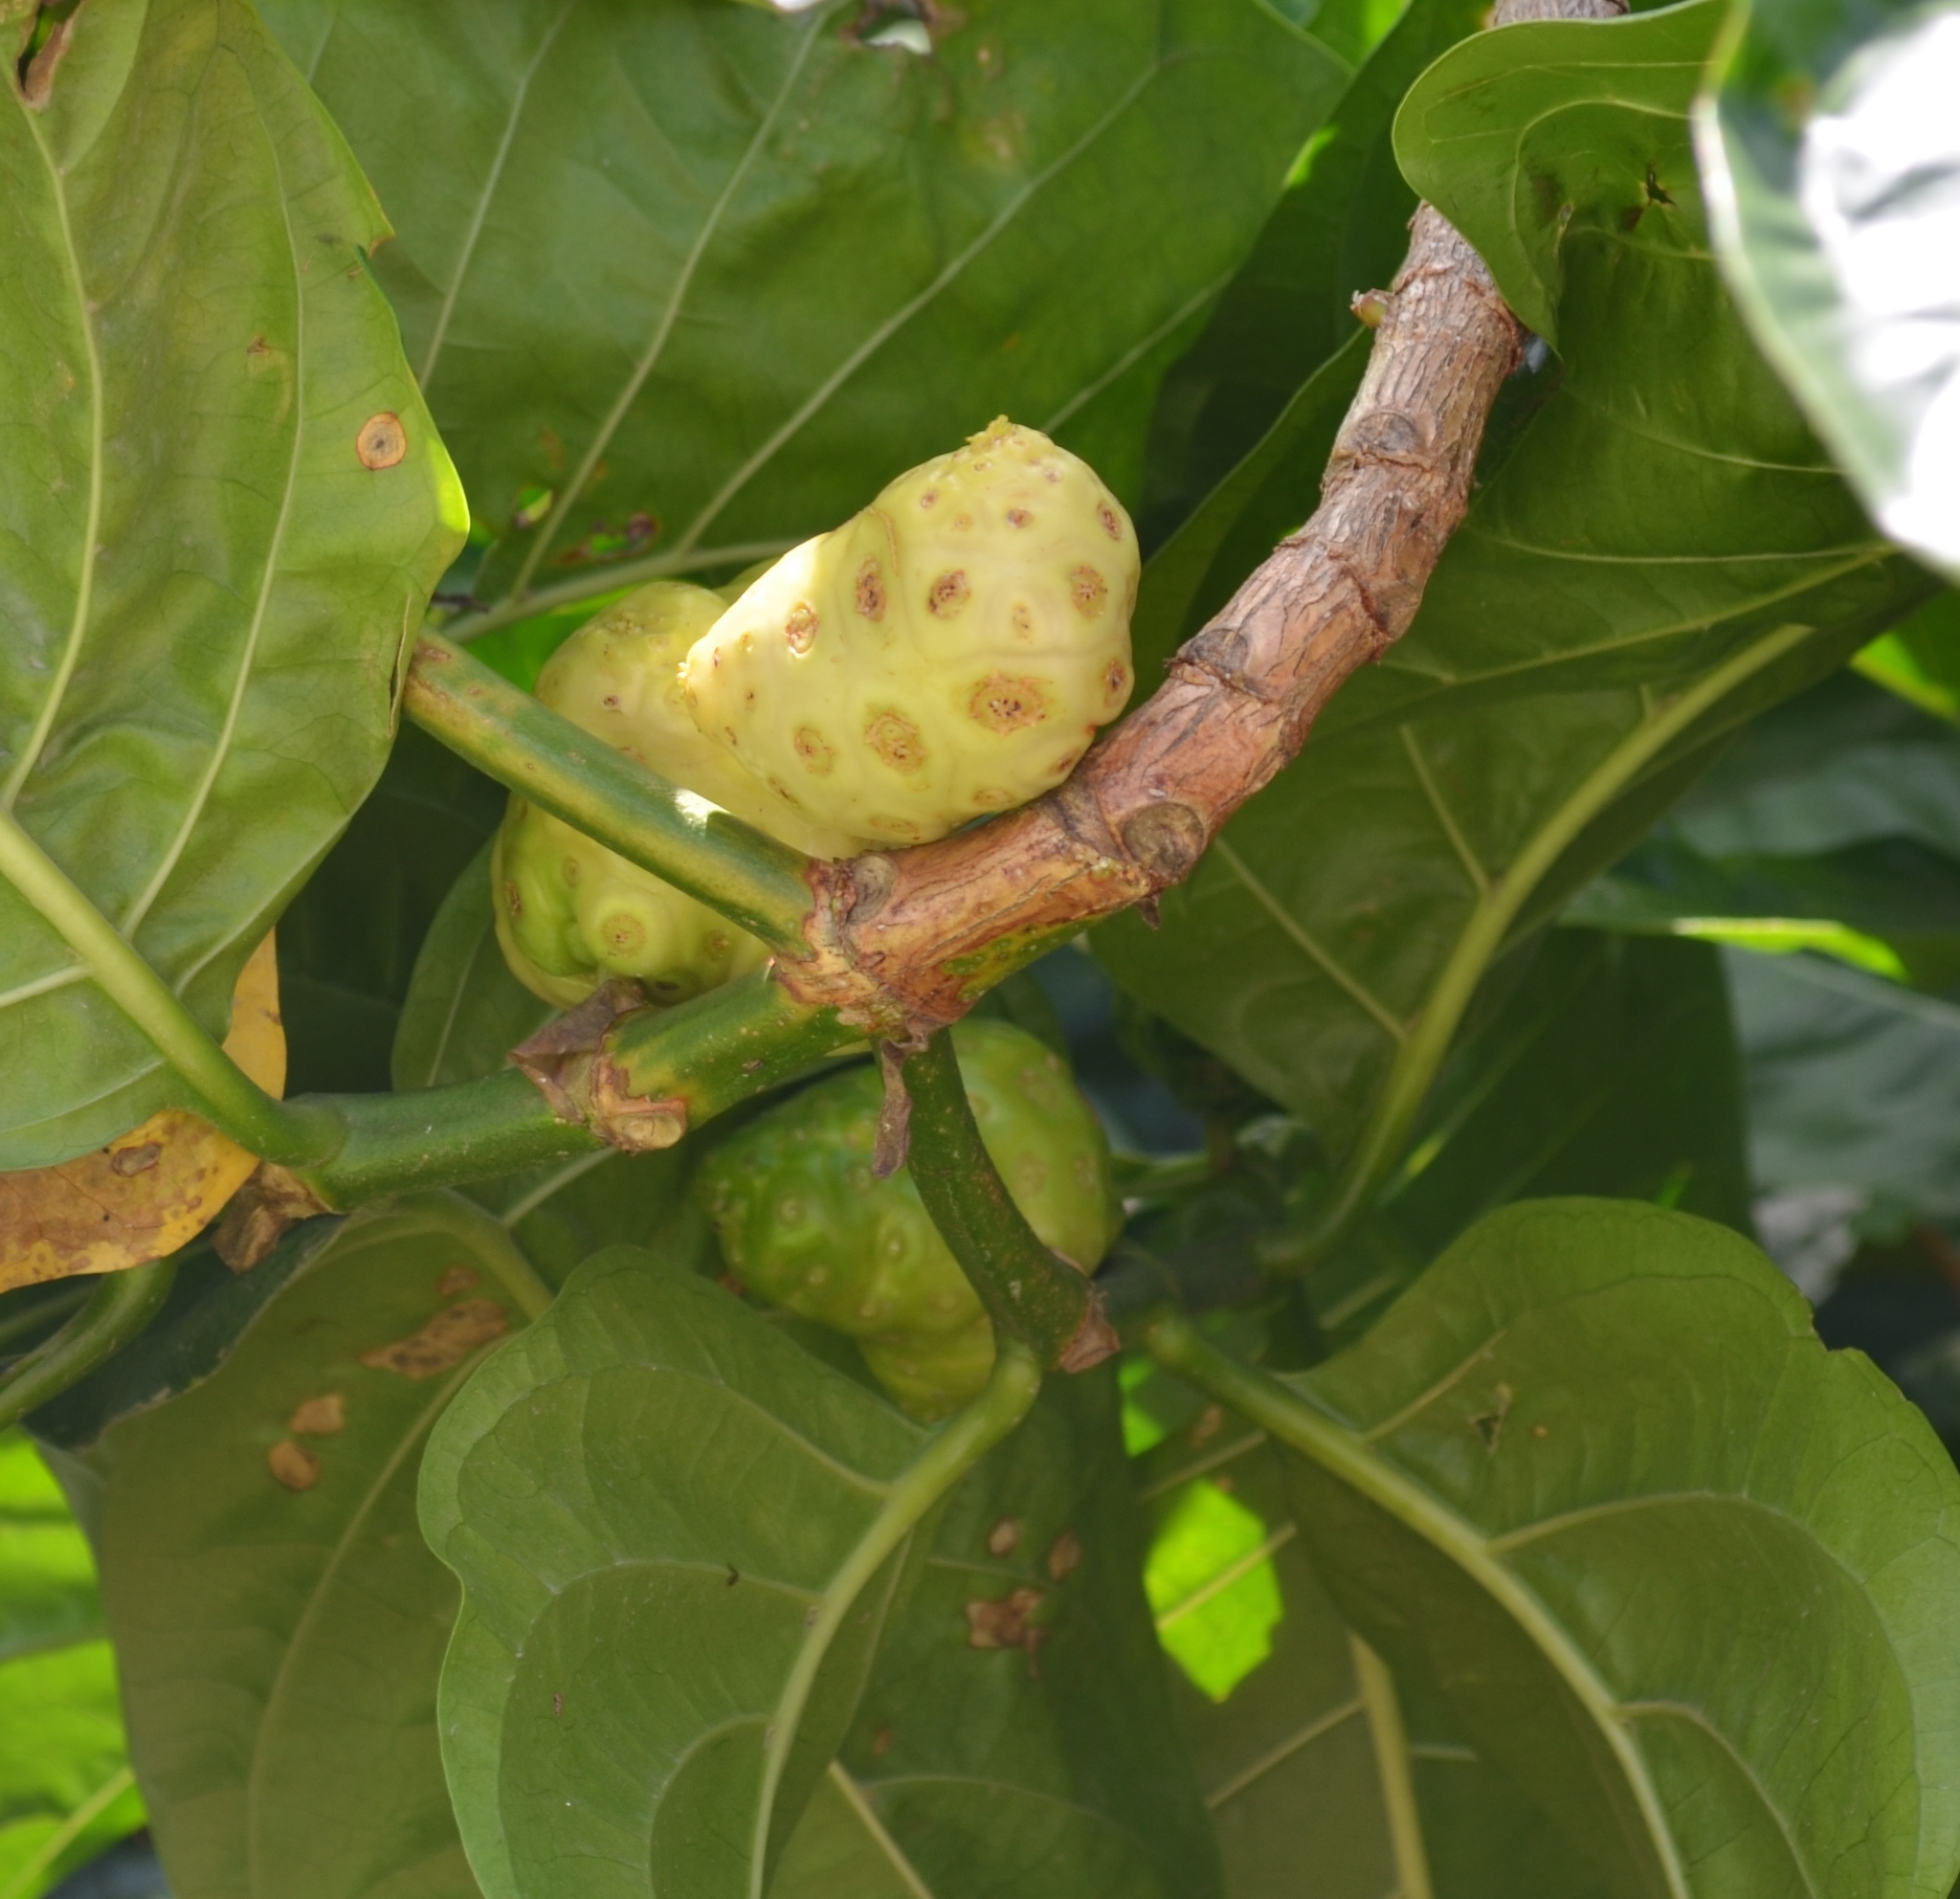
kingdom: Plantae
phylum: Tracheophyta
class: Magnoliopsida
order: Gentianales
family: Rubiaceae
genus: Morinda
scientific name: Morinda citrifolia
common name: Indian-mulberry
